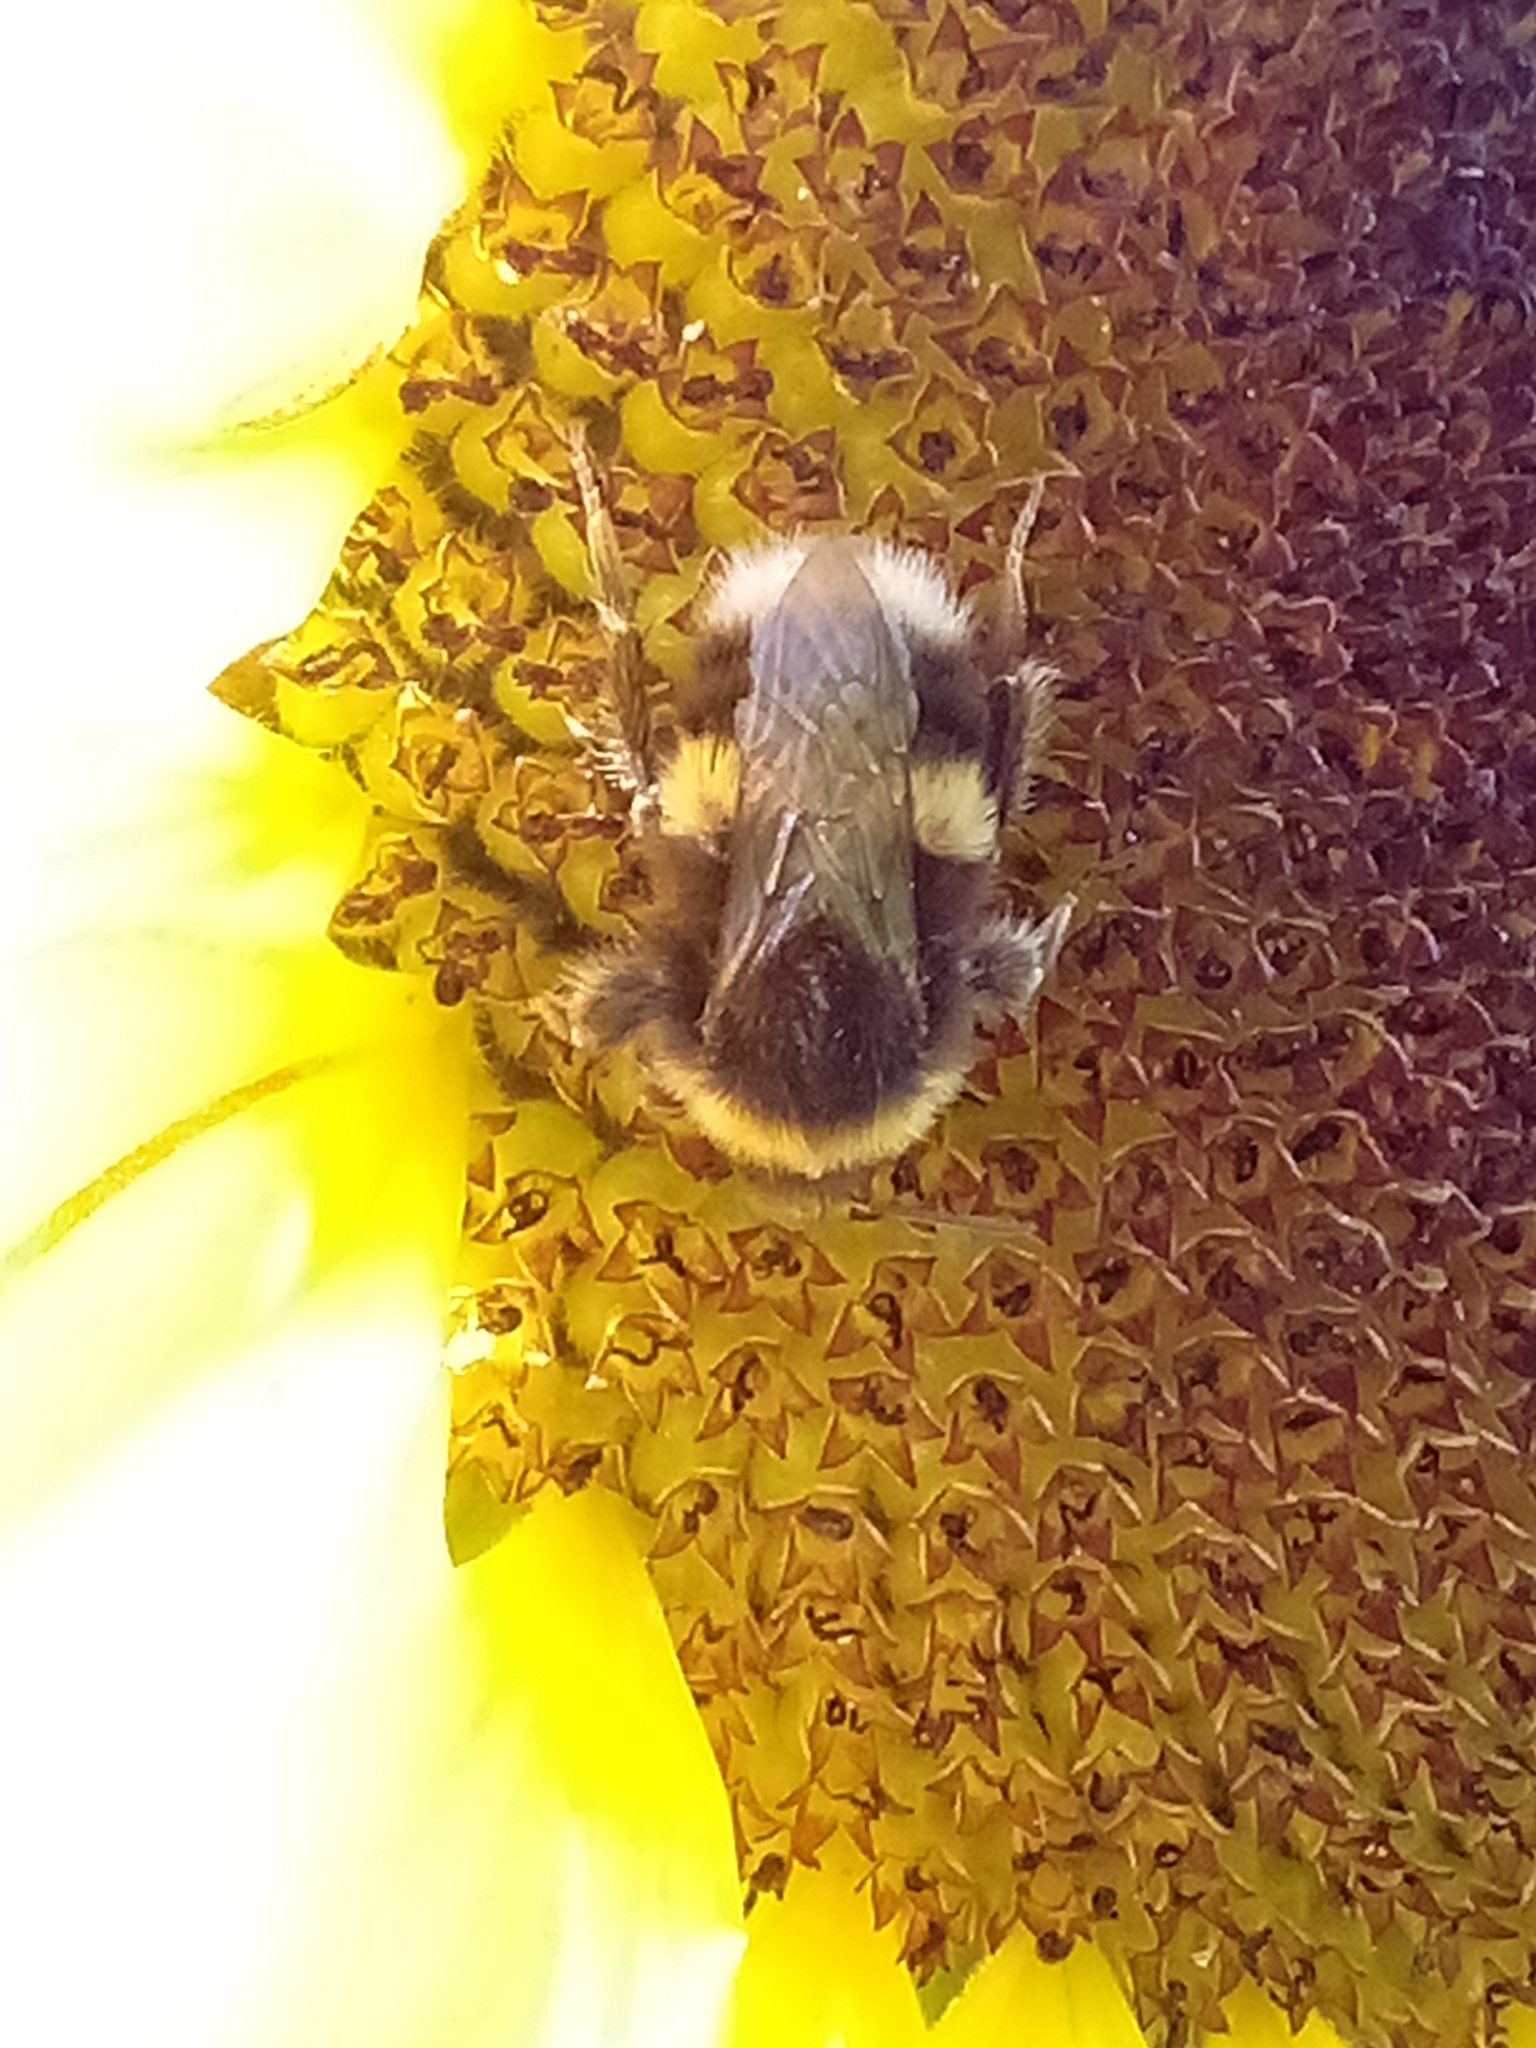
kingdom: Animalia
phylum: Arthropoda
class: Insecta
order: Hymenoptera
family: Apidae
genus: Bombus
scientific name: Bombus terrestris
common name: Buff-tailed bumblebee
